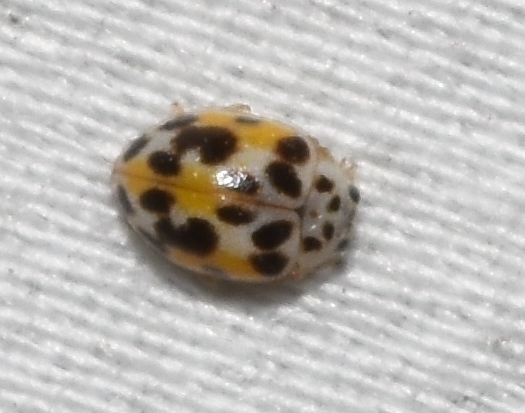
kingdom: Animalia
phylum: Arthropoda
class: Insecta
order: Coleoptera
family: Coccinellidae
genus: Psyllobora
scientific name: Psyllobora vigintimaculata
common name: Ladybird beetle
